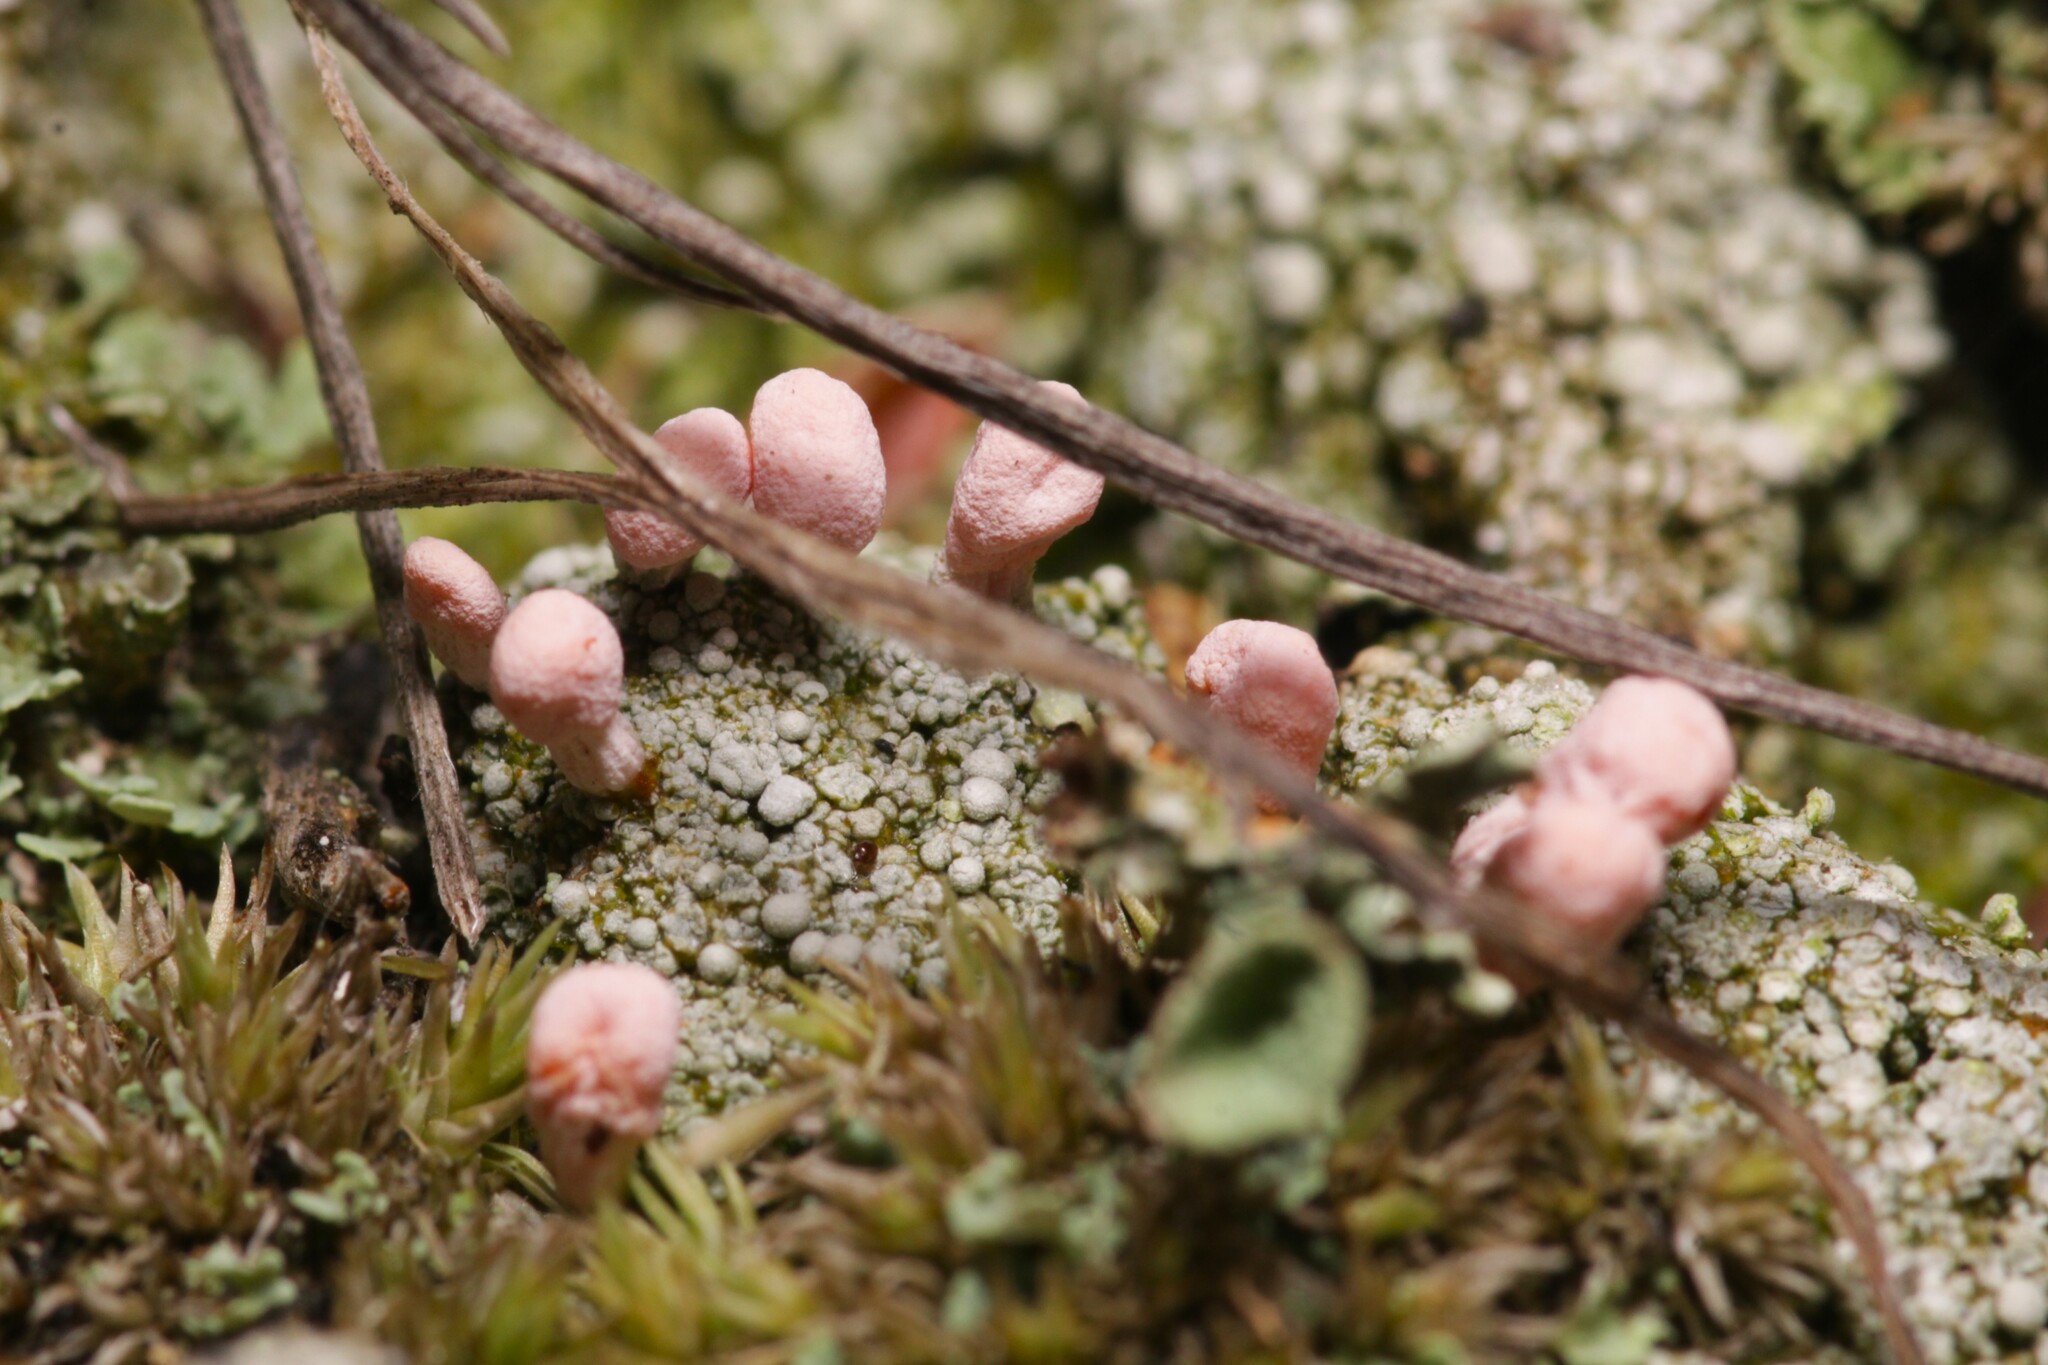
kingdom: Fungi
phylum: Ascomycota
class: Lecanoromycetes
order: Pertusariales
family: Icmadophilaceae
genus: Dibaeis
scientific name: Dibaeis baeomyces
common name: Pink earth lichen
